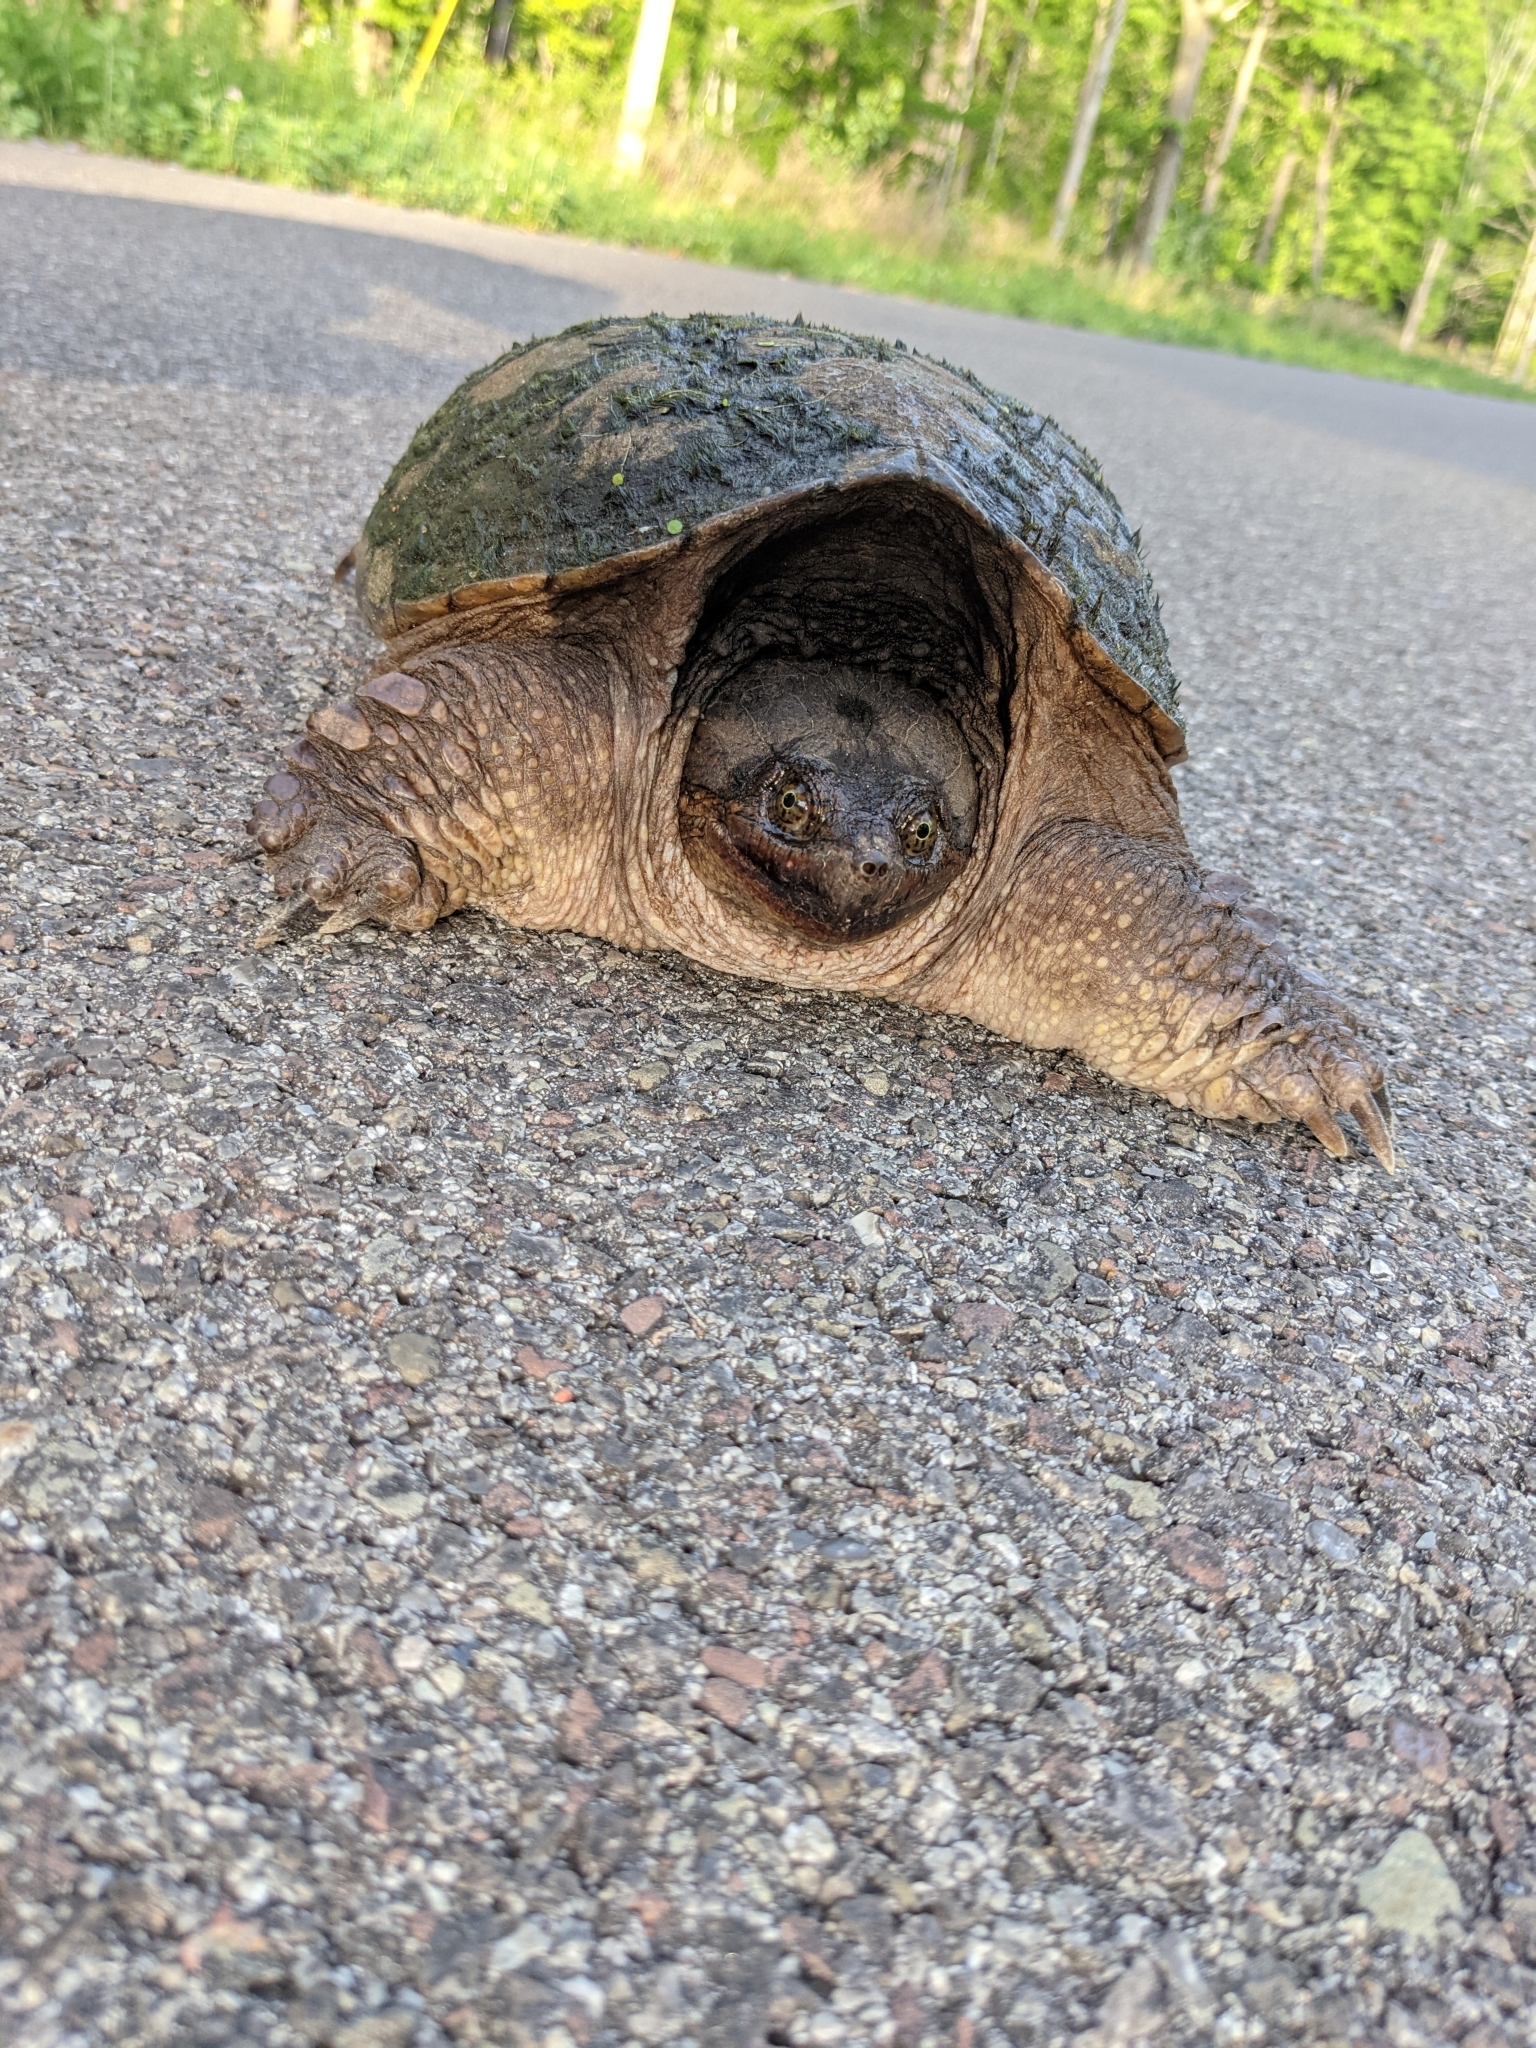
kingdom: Animalia
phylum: Chordata
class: Testudines
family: Chelydridae
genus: Chelydra
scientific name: Chelydra serpentina
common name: Common snapping turtle
